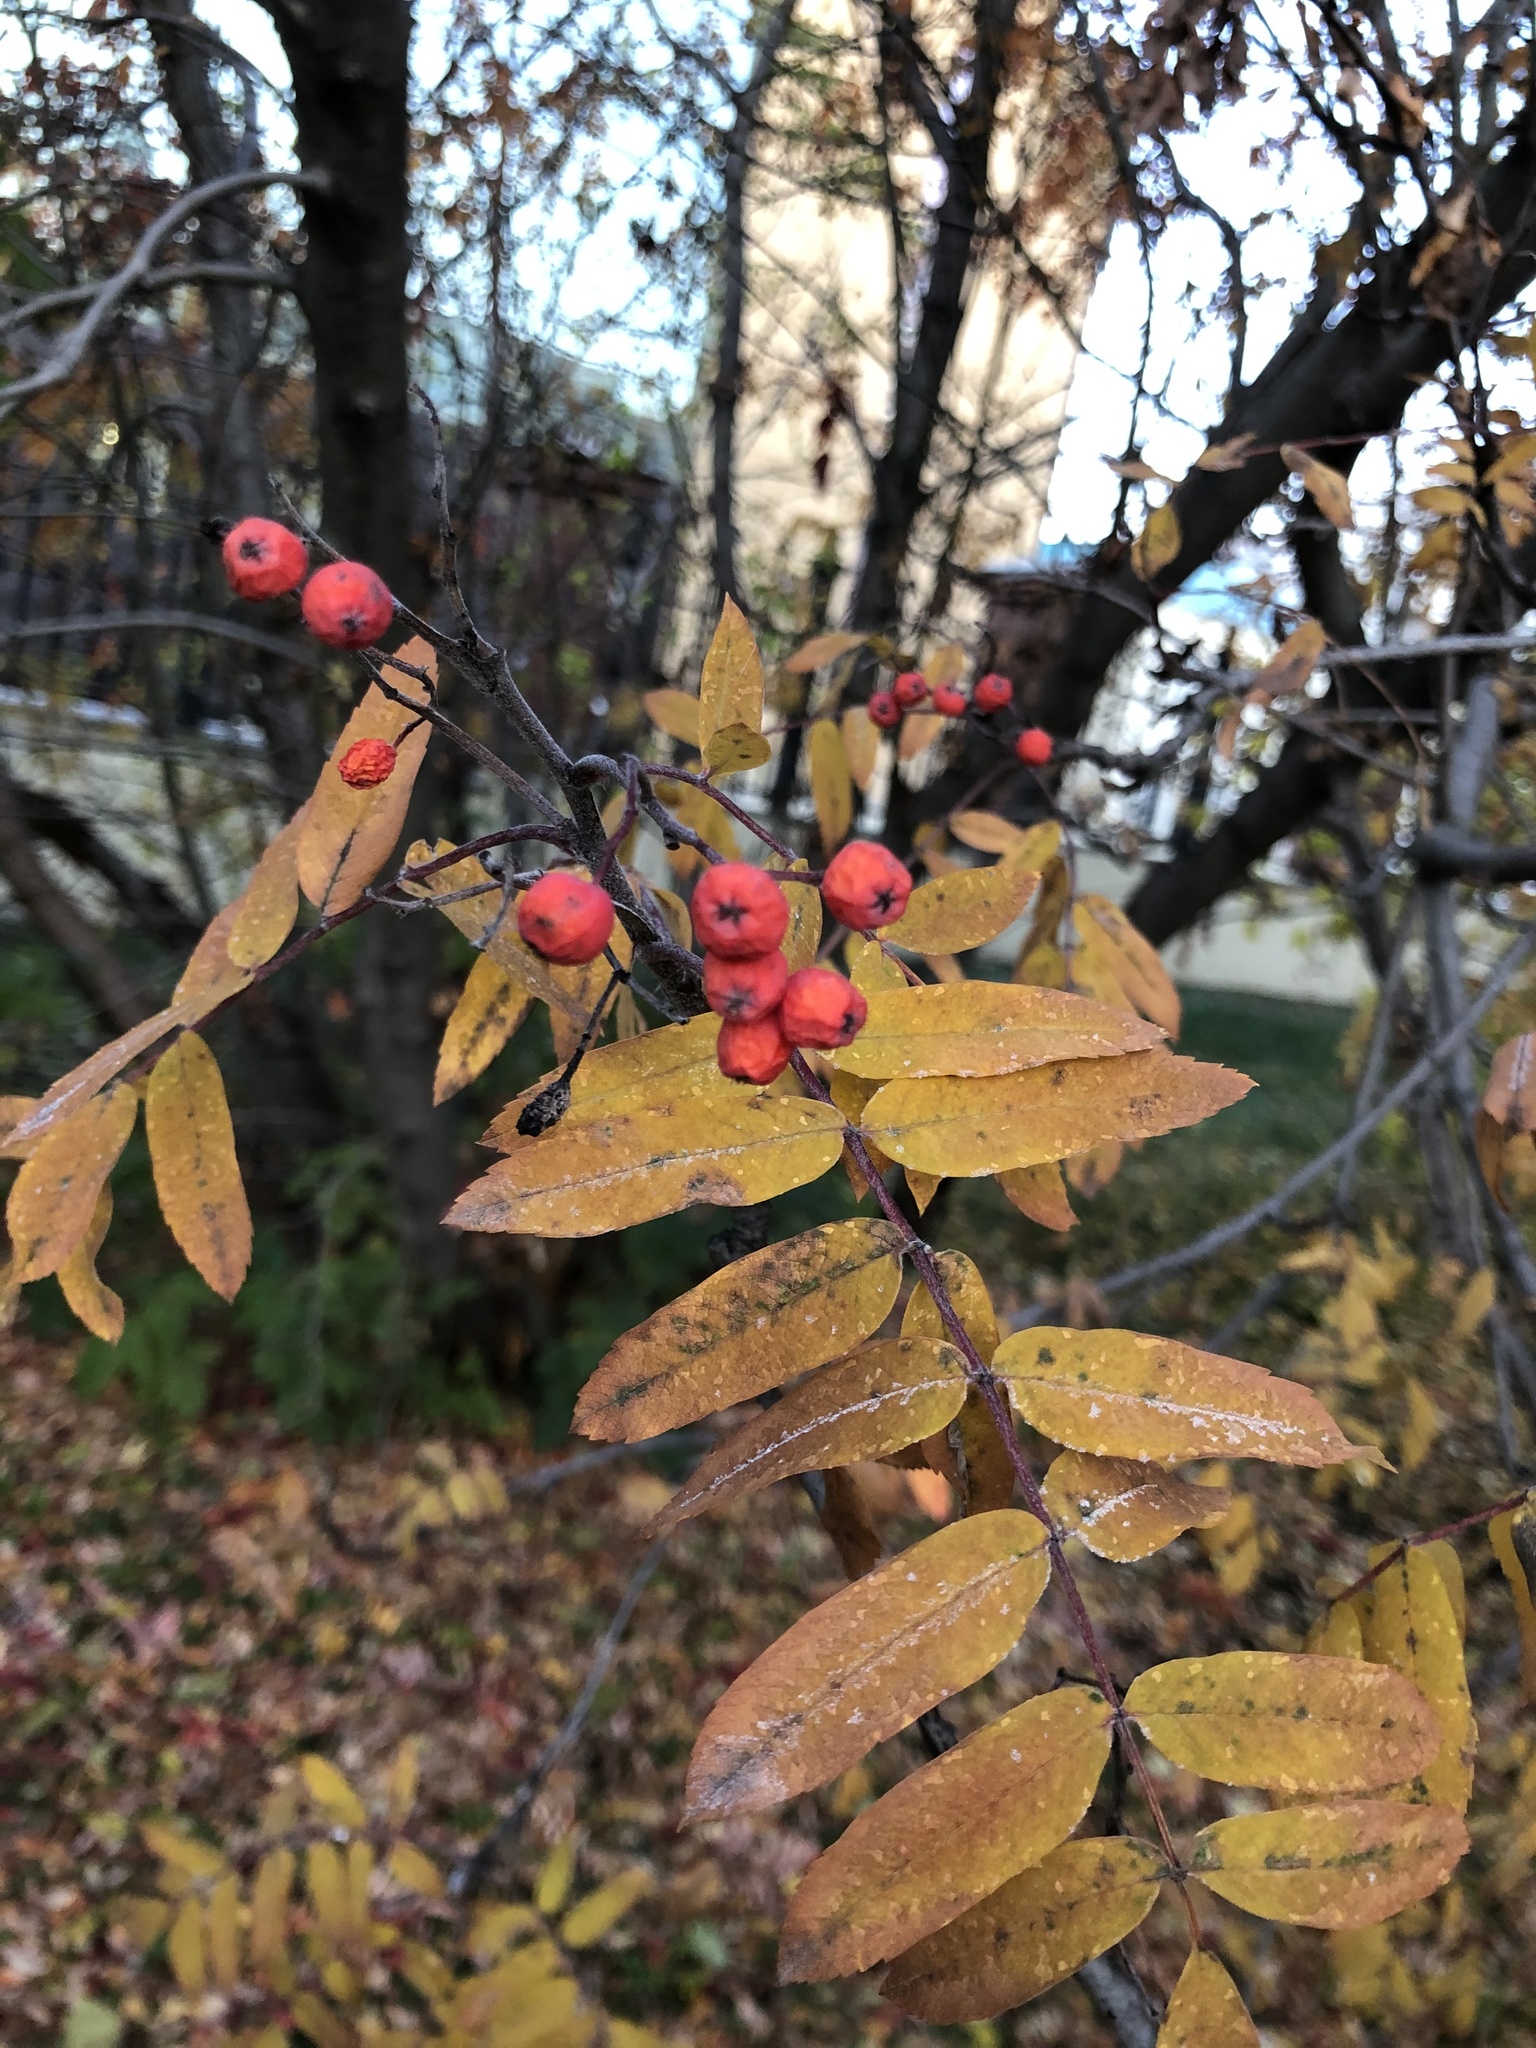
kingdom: Plantae
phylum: Tracheophyta
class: Magnoliopsida
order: Rosales
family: Rosaceae
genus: Sorbus
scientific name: Sorbus aucuparia
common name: Rowan
